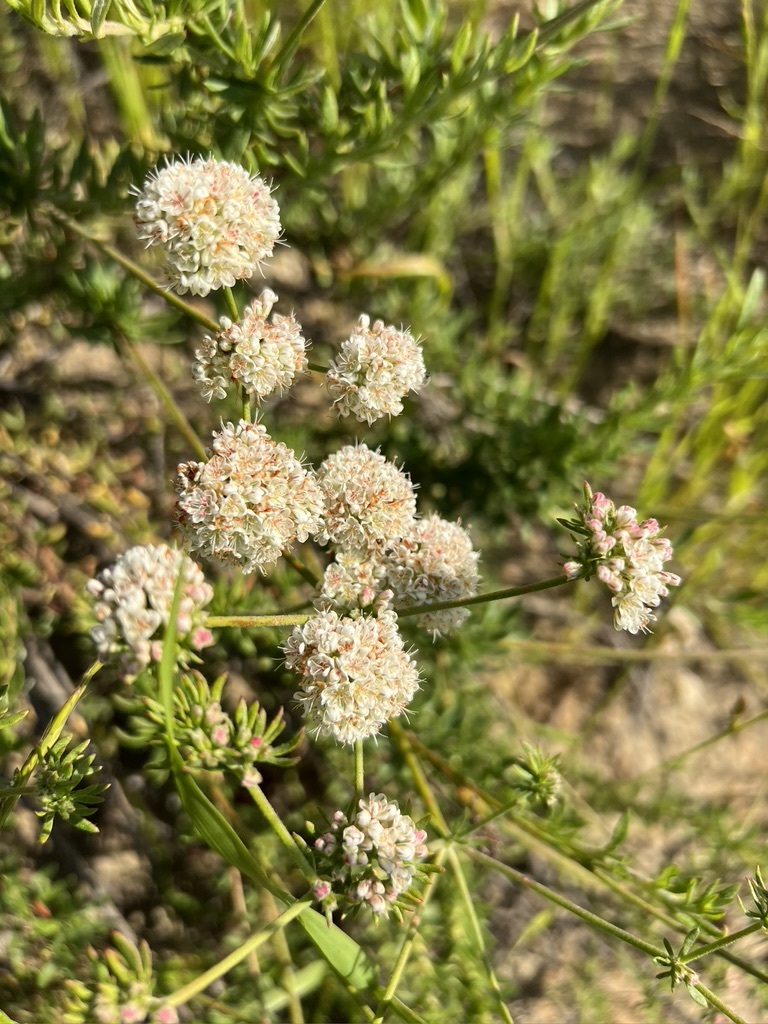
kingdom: Plantae
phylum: Tracheophyta
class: Magnoliopsida
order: Caryophyllales
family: Polygonaceae
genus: Eriogonum
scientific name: Eriogonum fasciculatum
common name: California wild buckwheat
